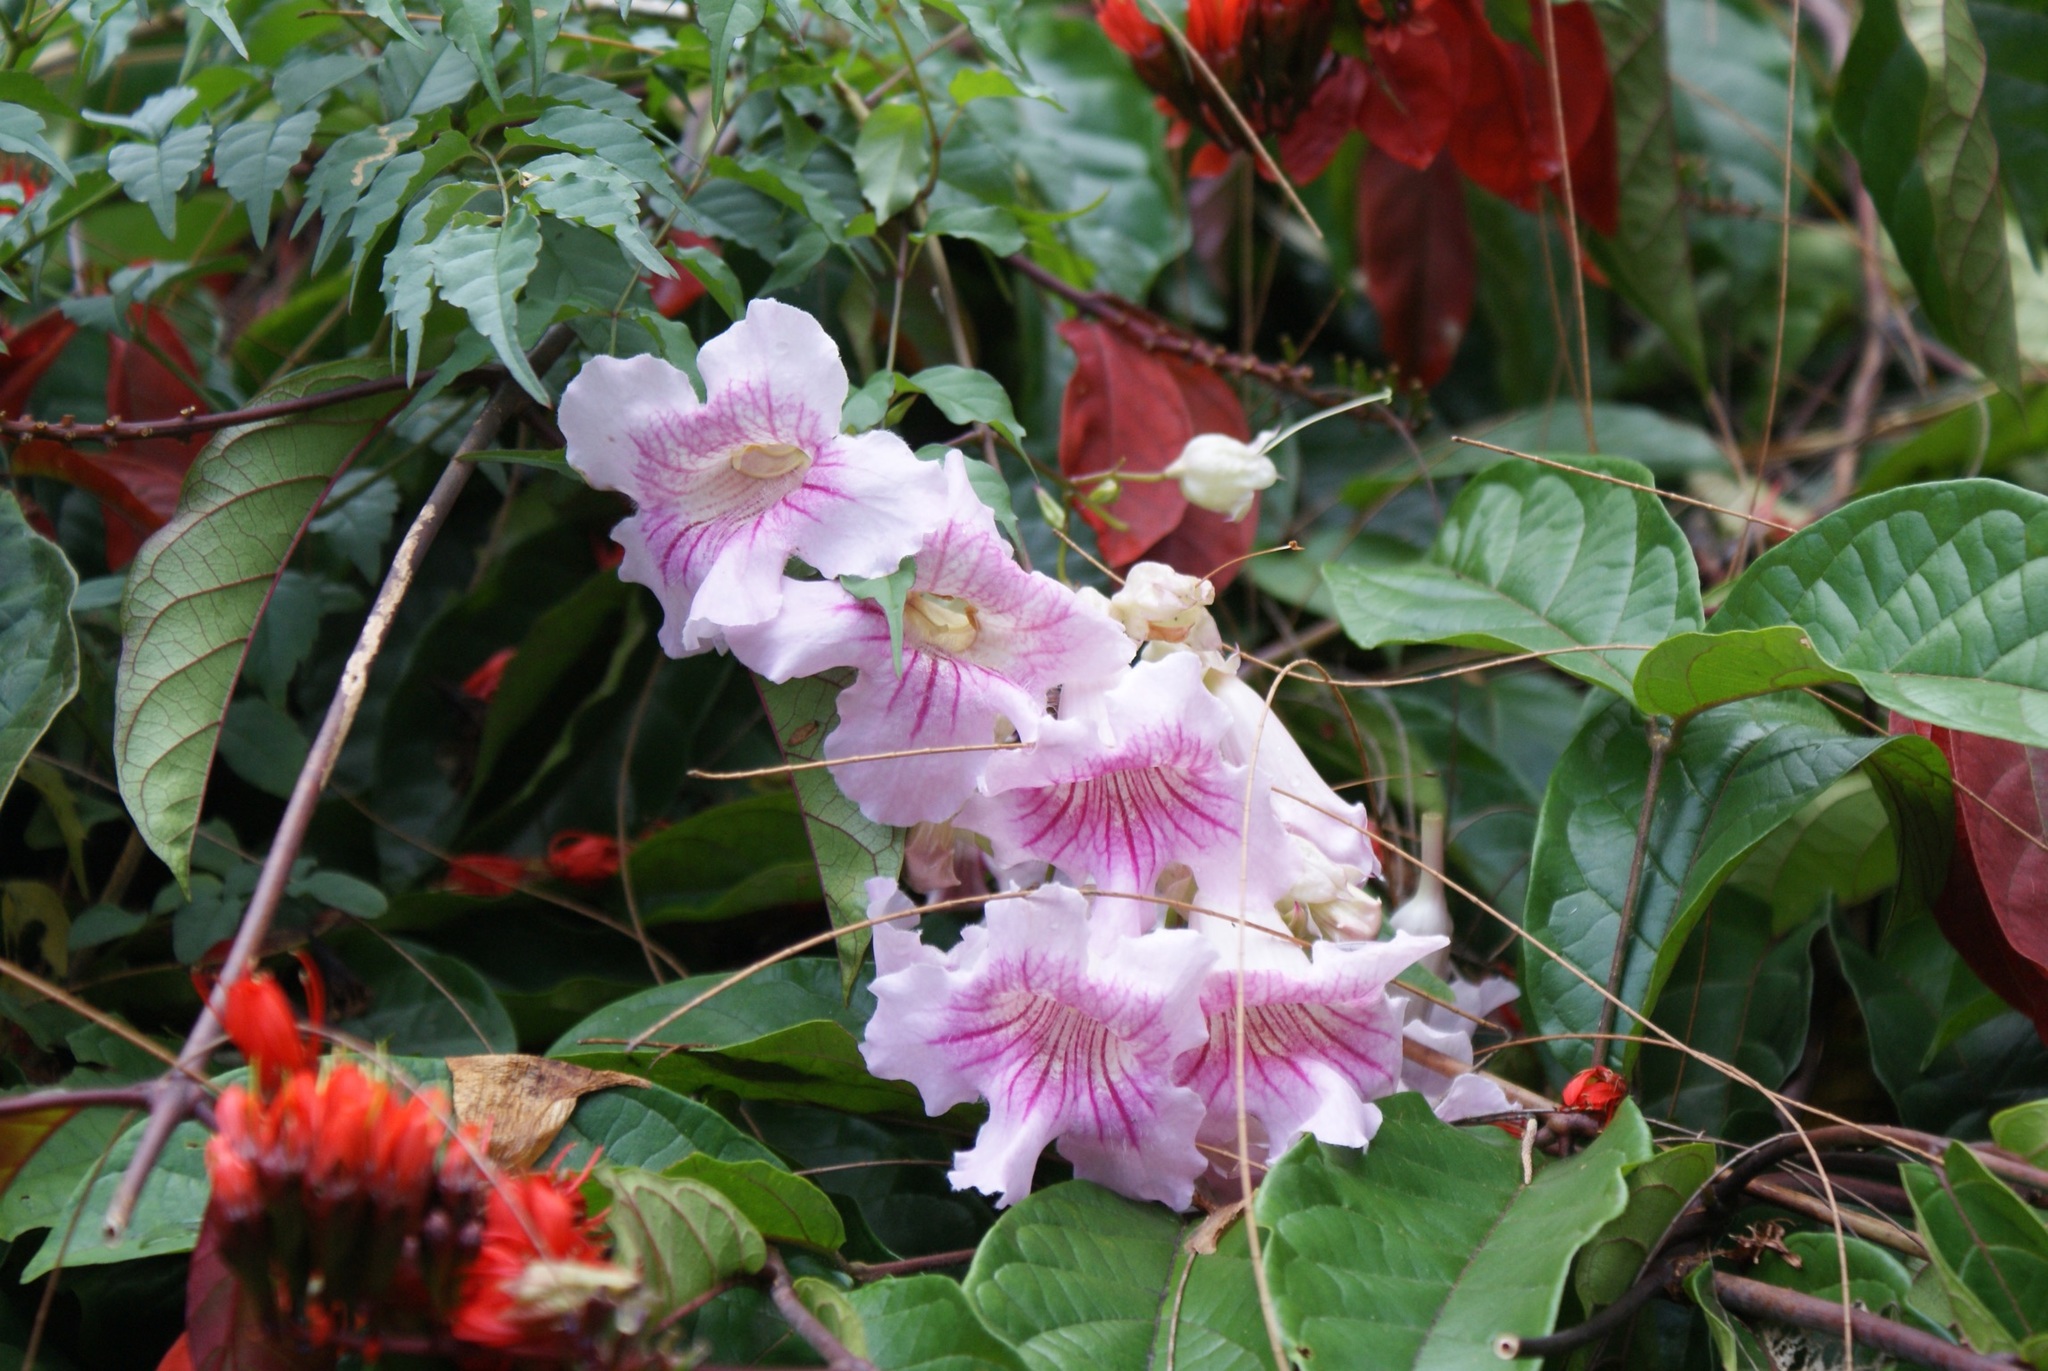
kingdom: Plantae
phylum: Tracheophyta
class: Magnoliopsida
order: Lamiales
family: Bignoniaceae
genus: Podranea
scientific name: Podranea ricasoliana
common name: Zimbabwe creeper
